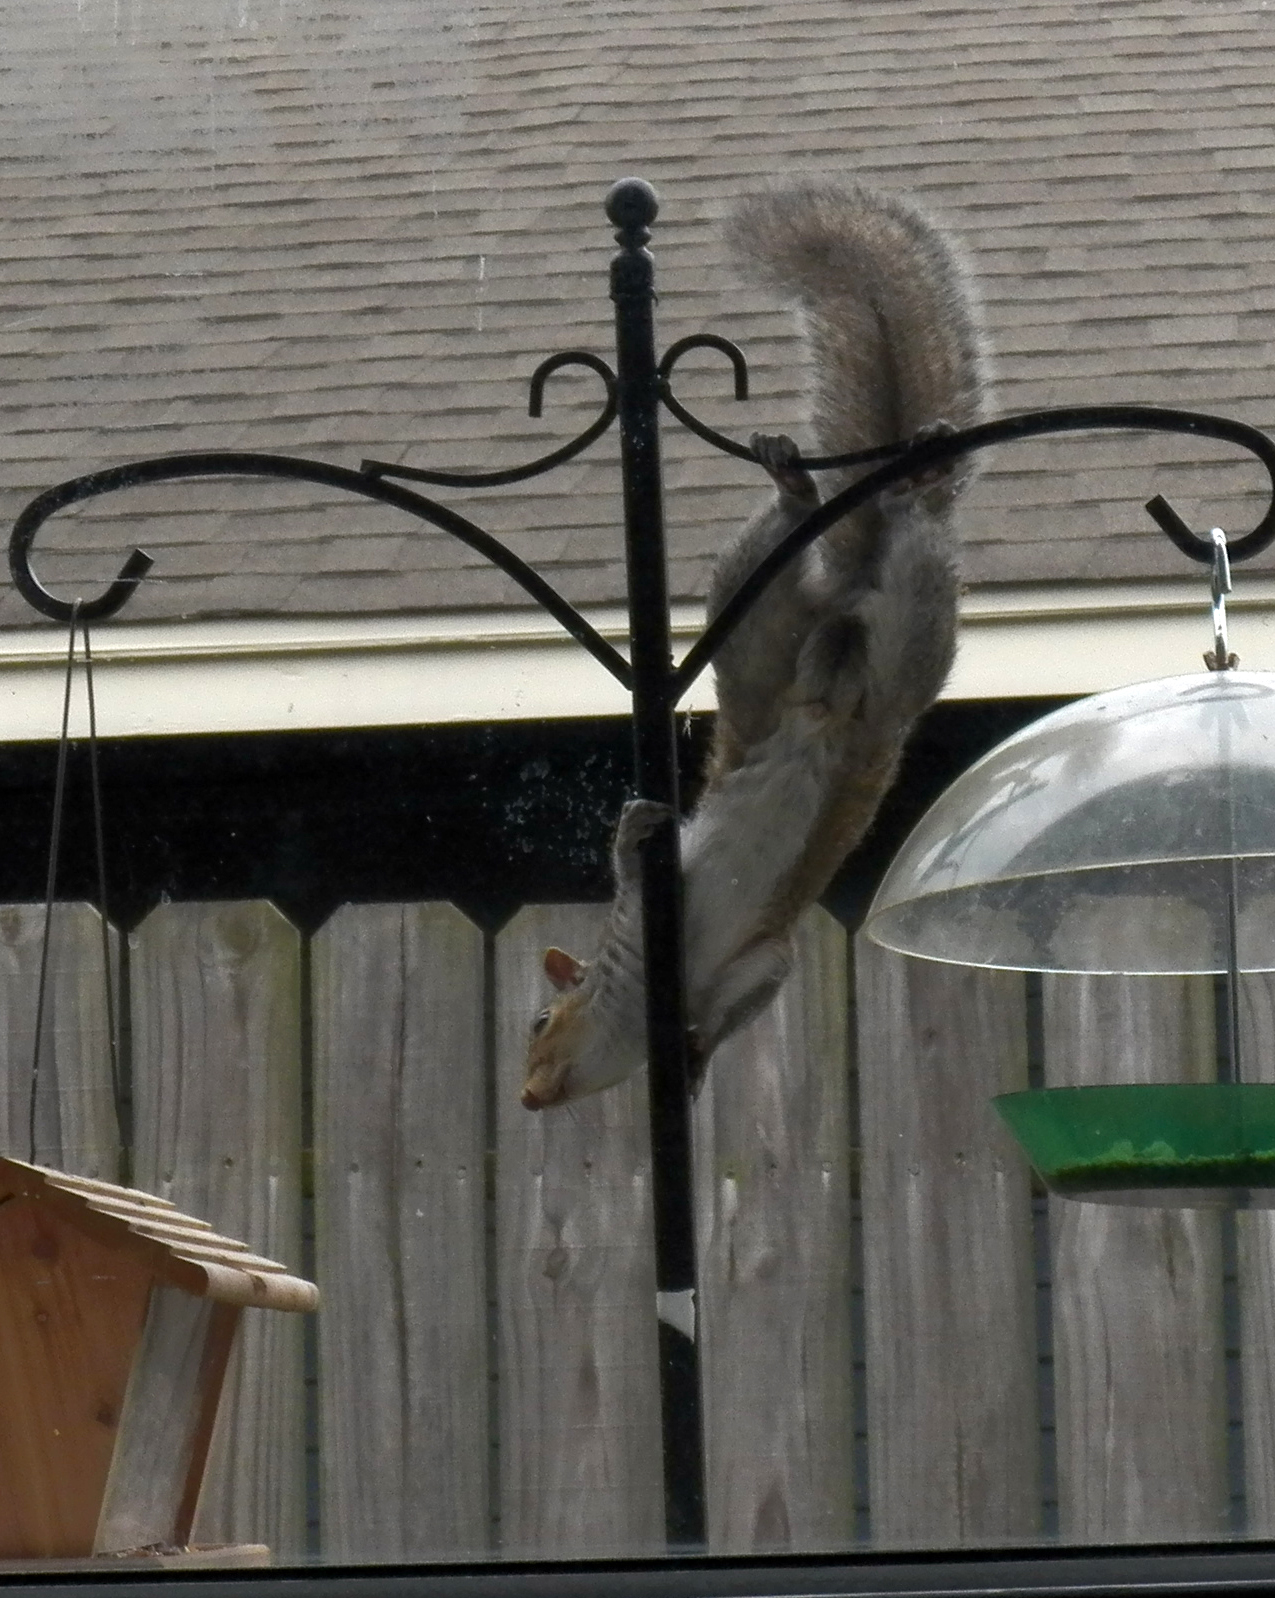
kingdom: Animalia
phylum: Chordata
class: Mammalia
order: Rodentia
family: Sciuridae
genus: Sciurus
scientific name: Sciurus carolinensis
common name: Eastern gray squirrel
